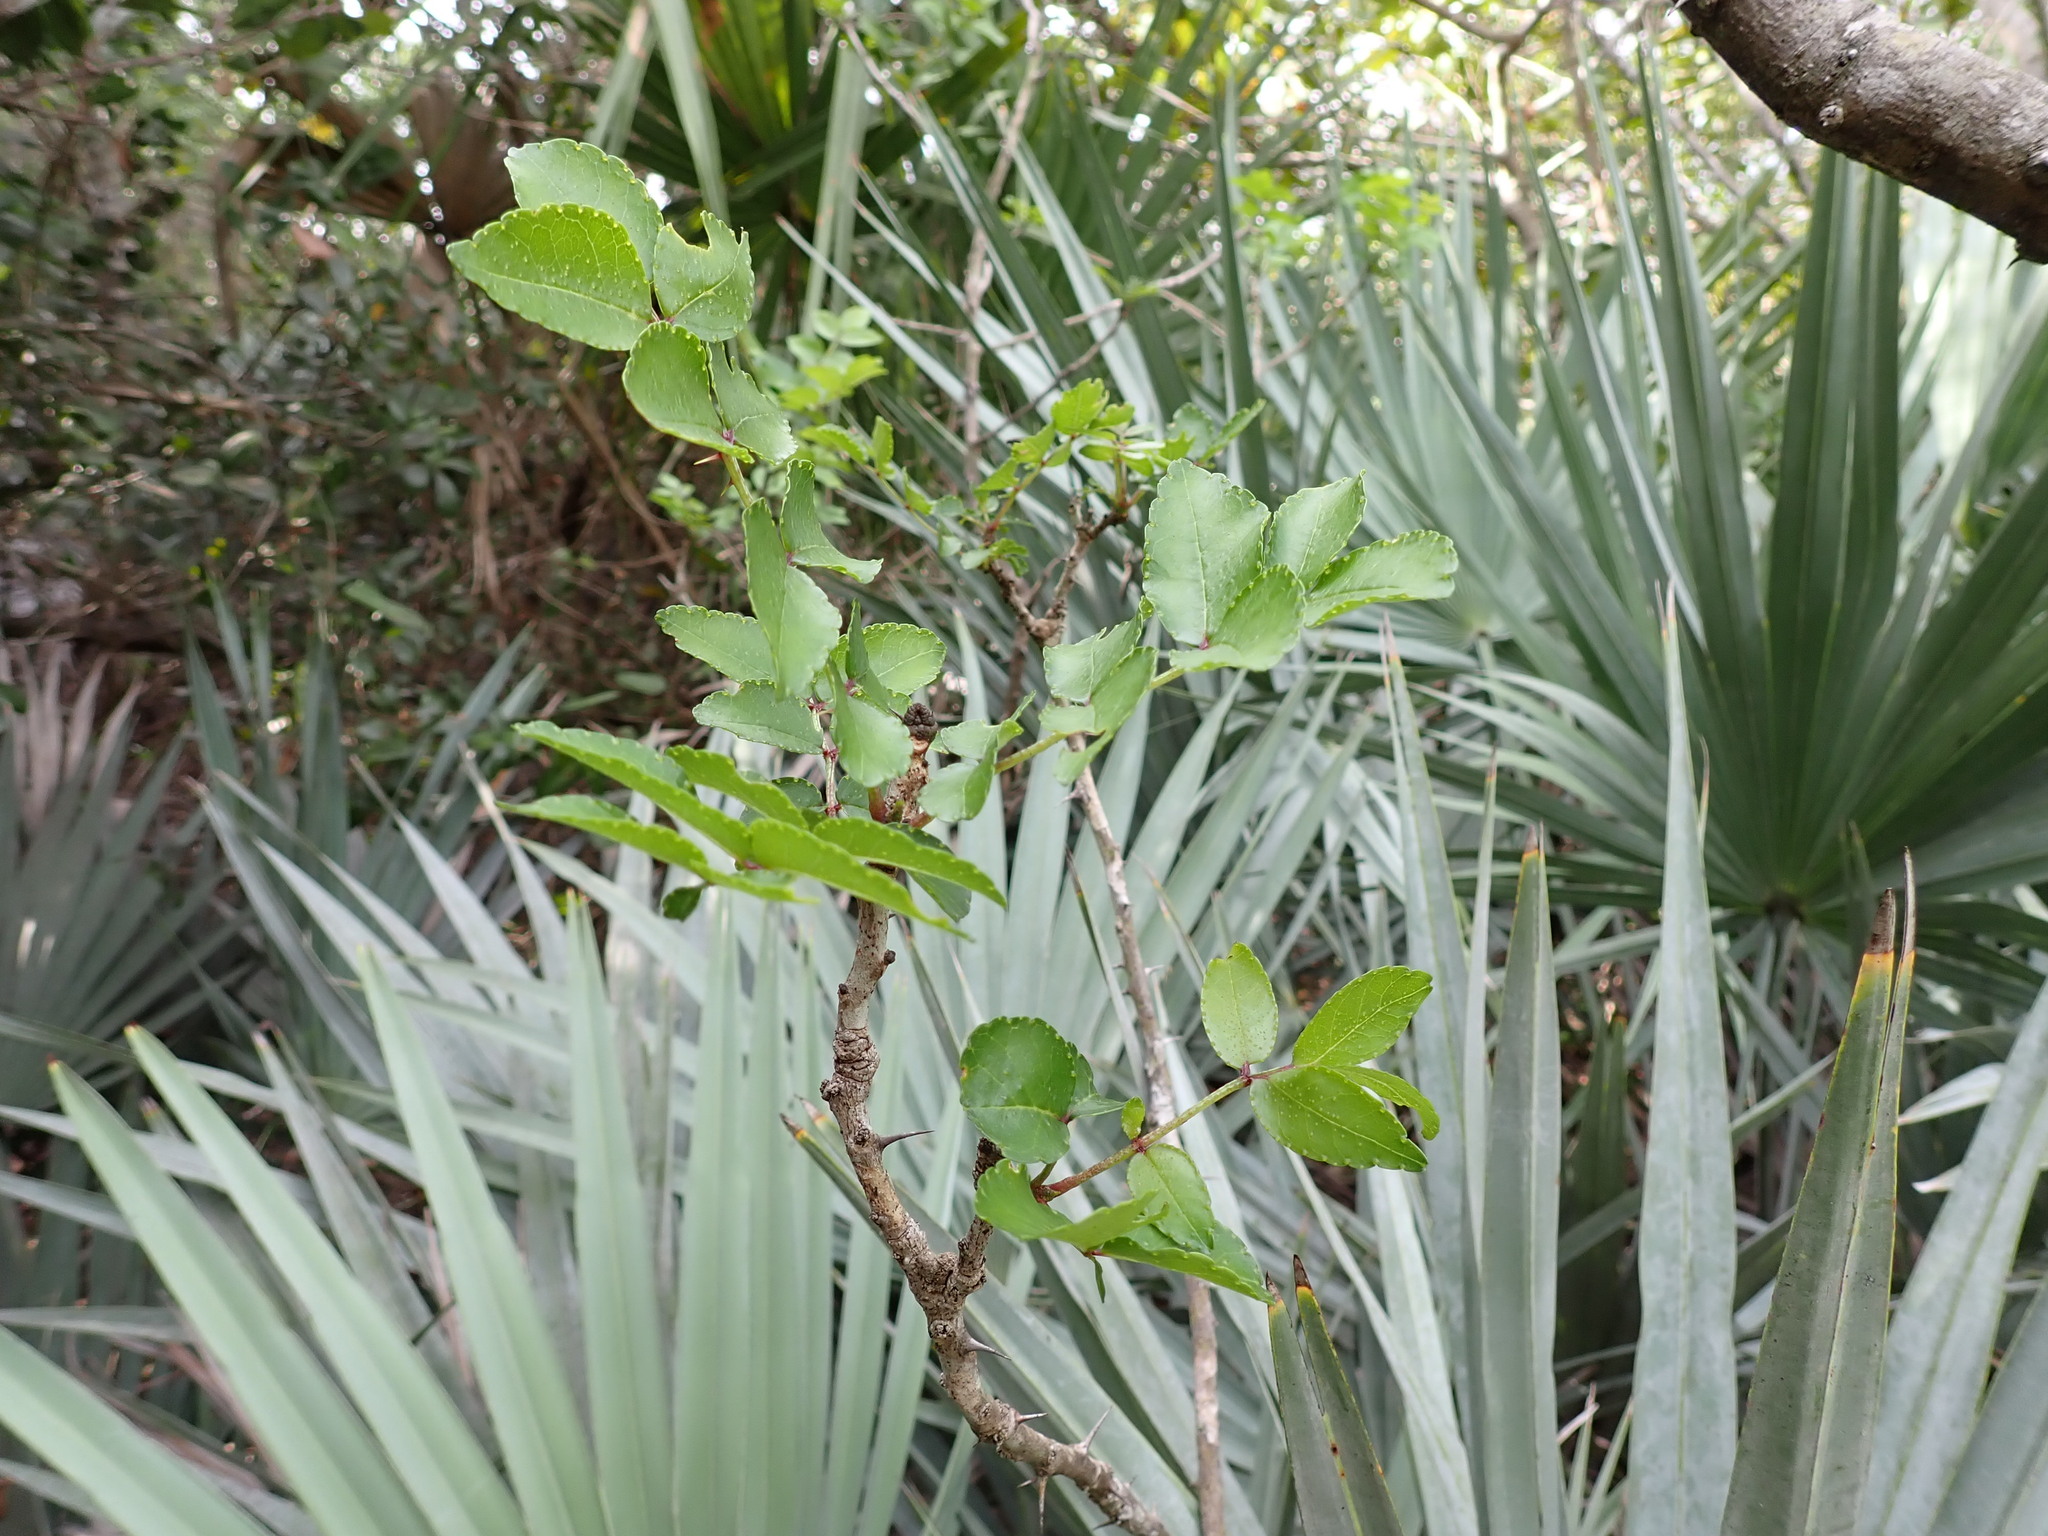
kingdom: Plantae
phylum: Tracheophyta
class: Magnoliopsida
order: Sapindales
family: Rutaceae
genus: Zanthoxylum
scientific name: Zanthoxylum clava-herculis
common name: Hercules'-club
